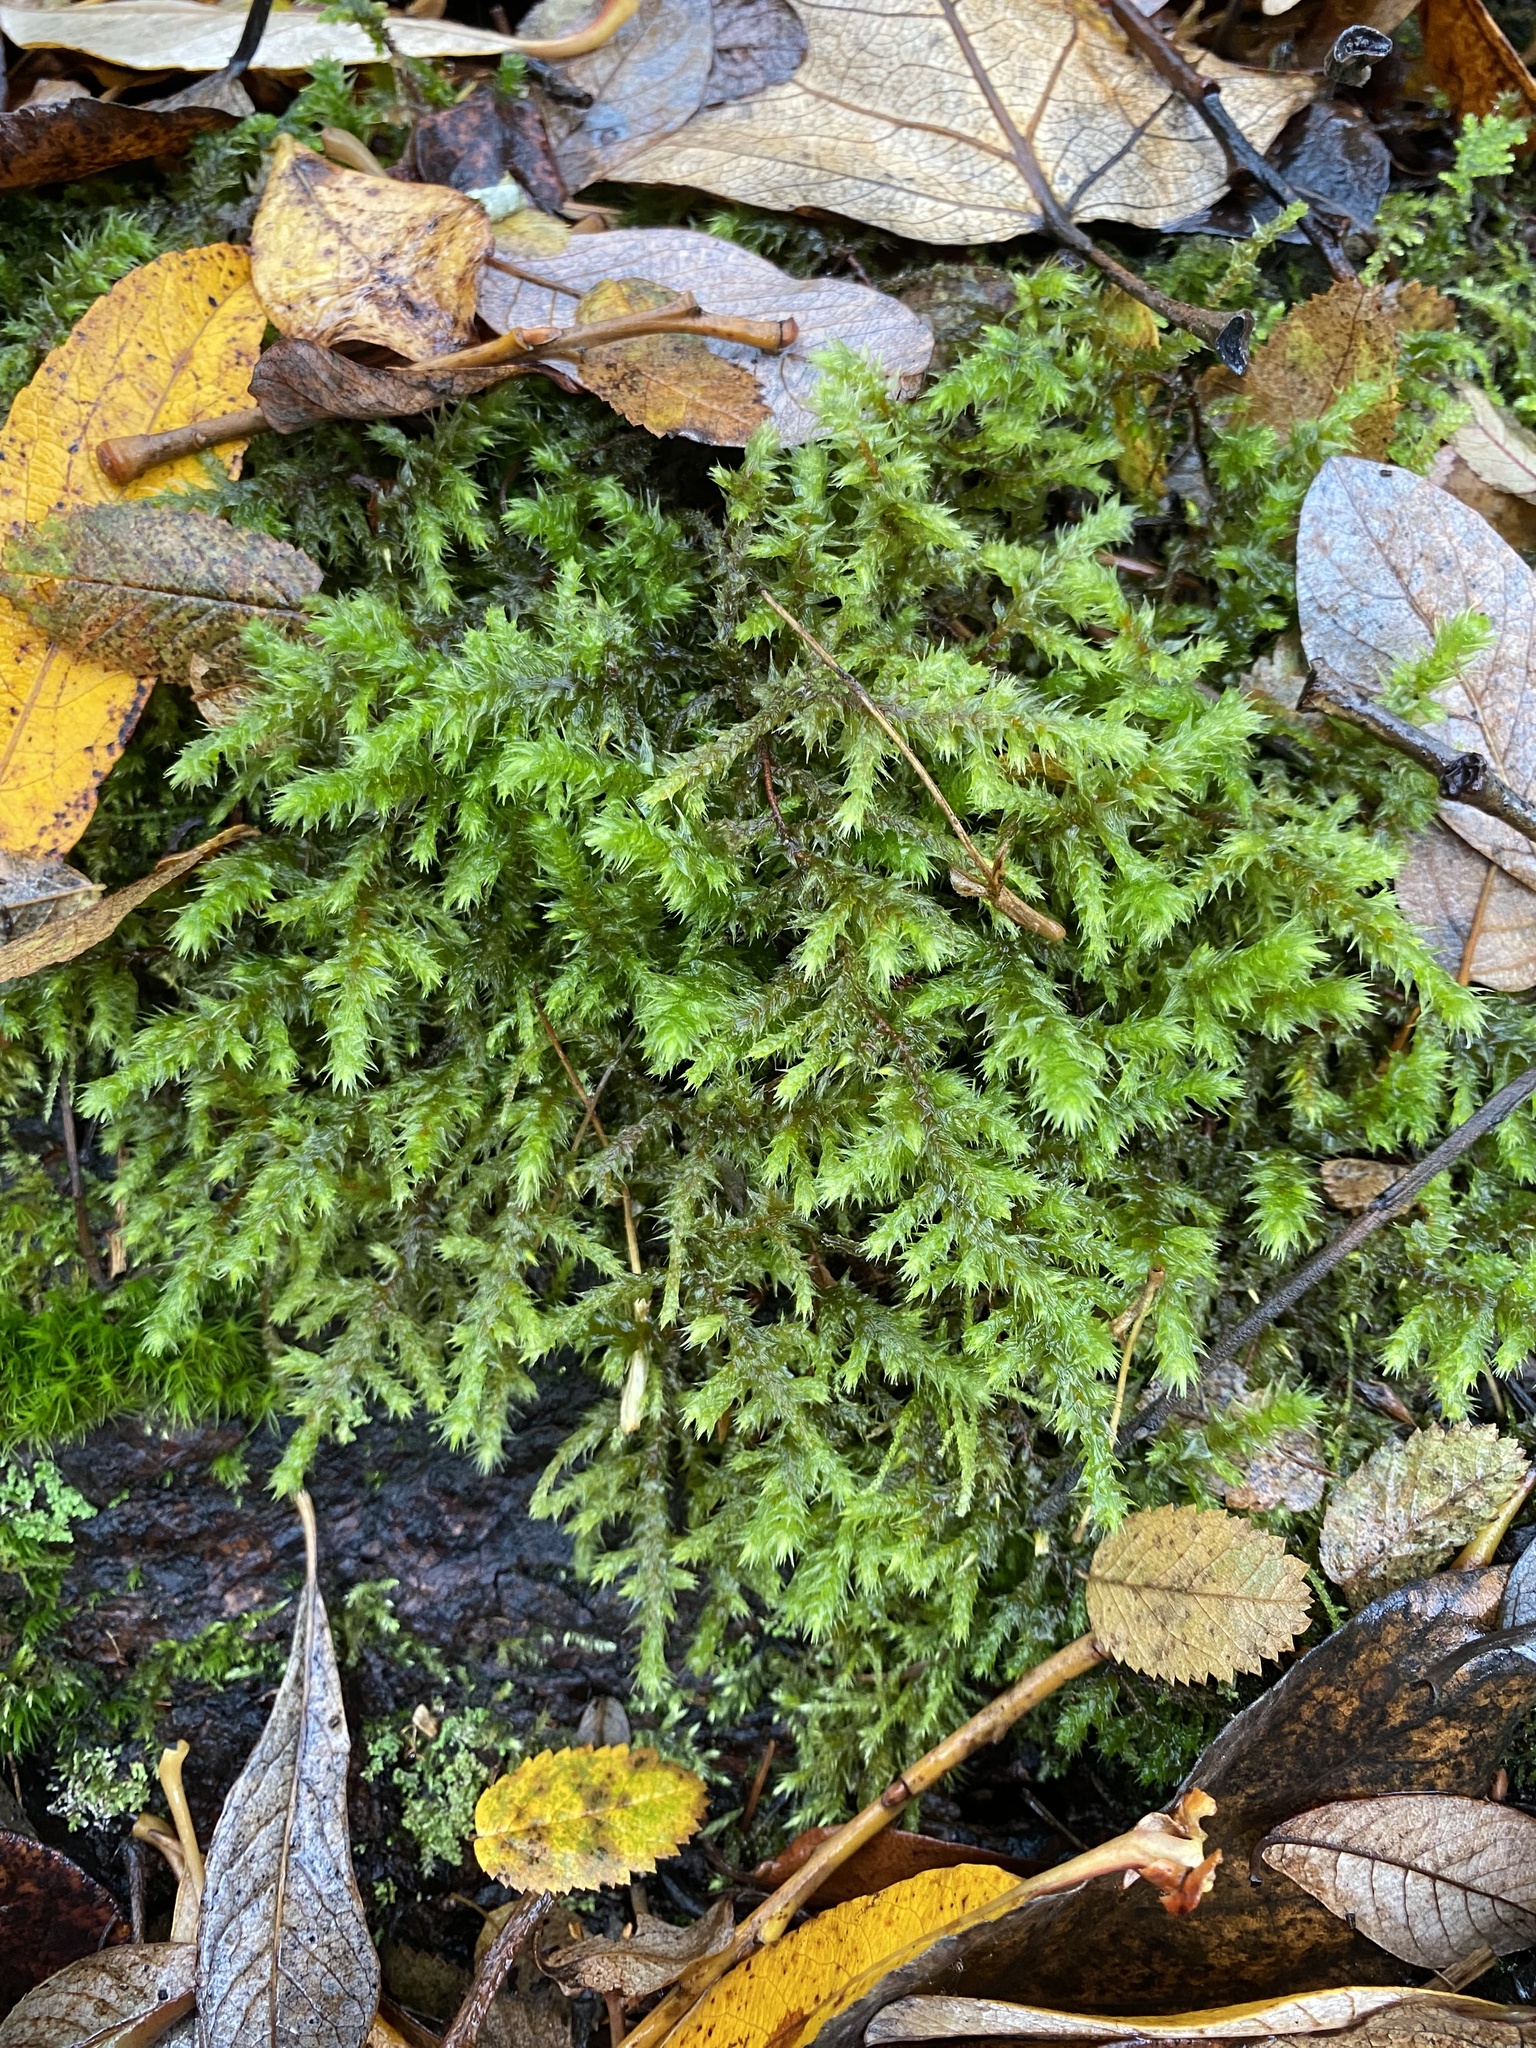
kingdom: Plantae
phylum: Bryophyta
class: Bryopsida
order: Hypnales
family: Hylocomiaceae
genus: Hylocomiadelphus
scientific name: Hylocomiadelphus triquetrus
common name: Rough goose neck moss
